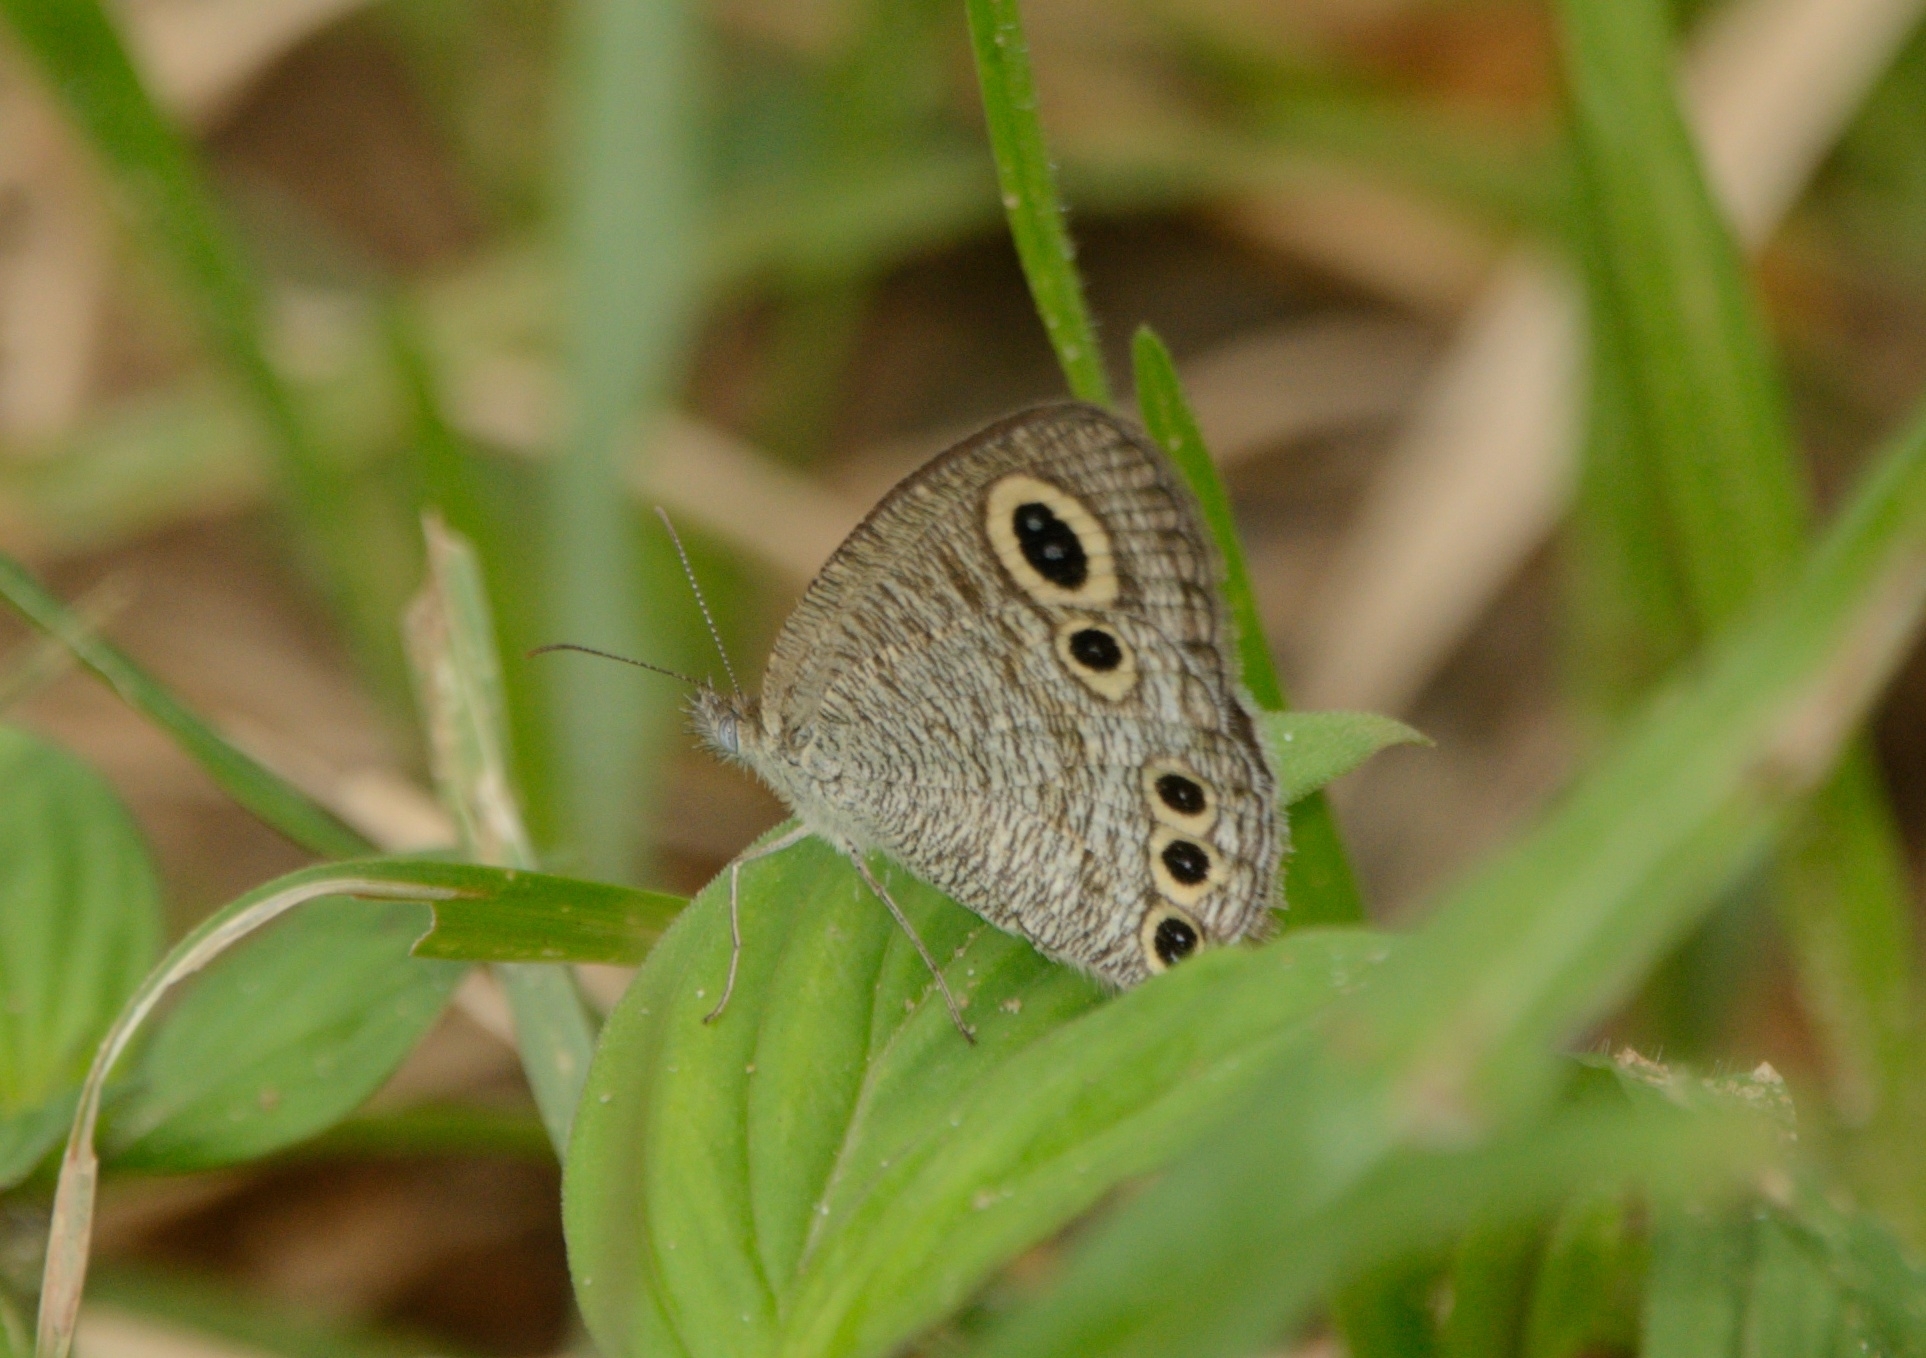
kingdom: Animalia
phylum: Arthropoda
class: Insecta
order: Lepidoptera
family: Nymphalidae
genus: Ypthima
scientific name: Ypthima huebneri
